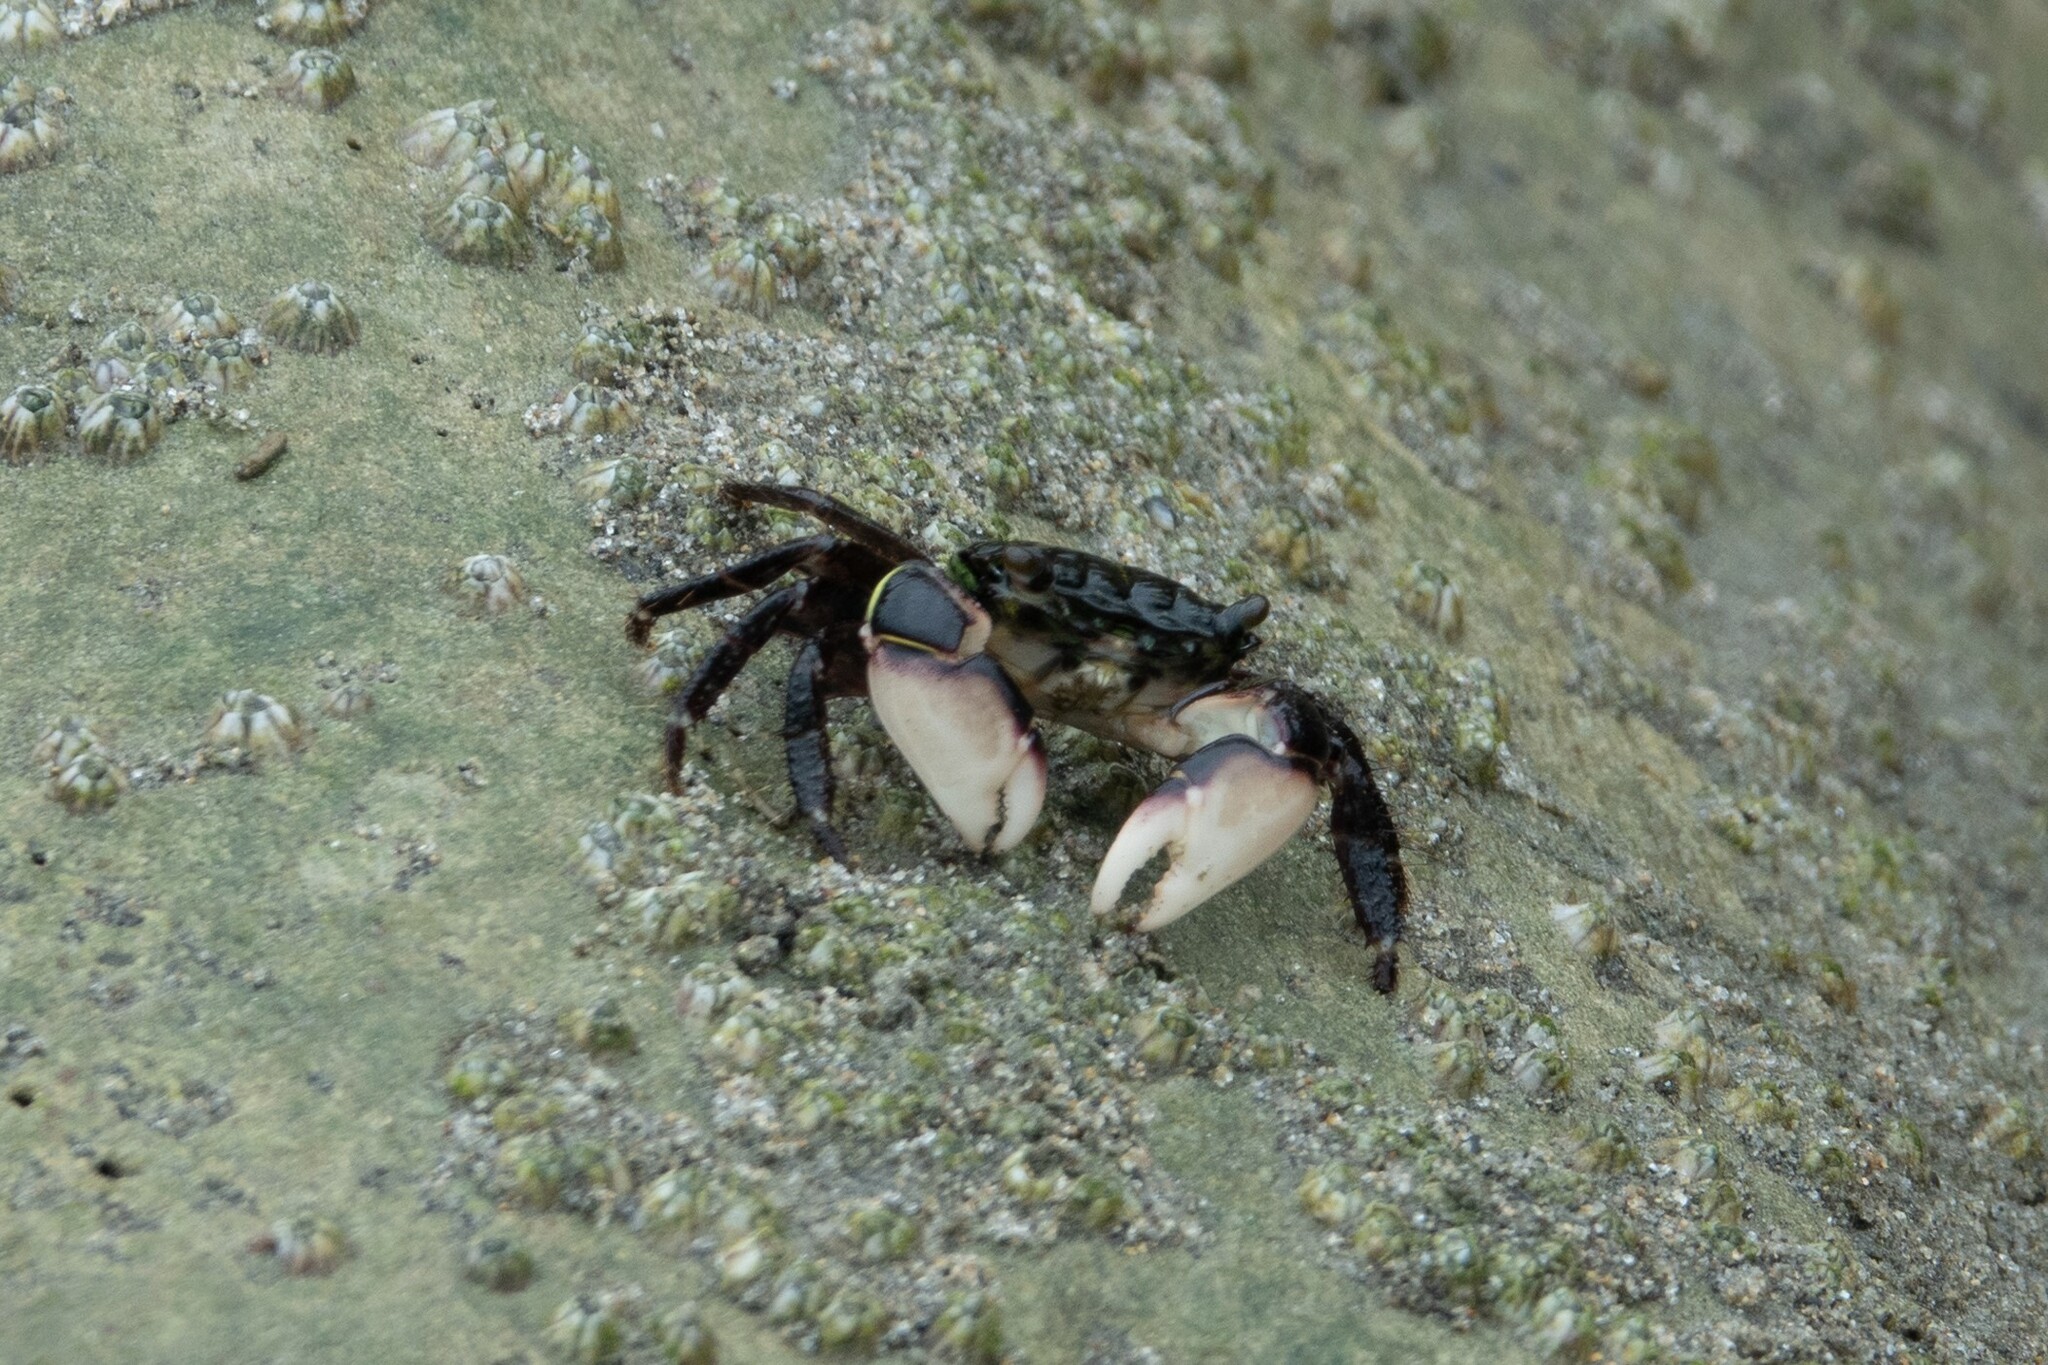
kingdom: Animalia
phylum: Arthropoda
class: Malacostraca
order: Decapoda
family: Grapsidae
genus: Pachygrapsus
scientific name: Pachygrapsus socius
